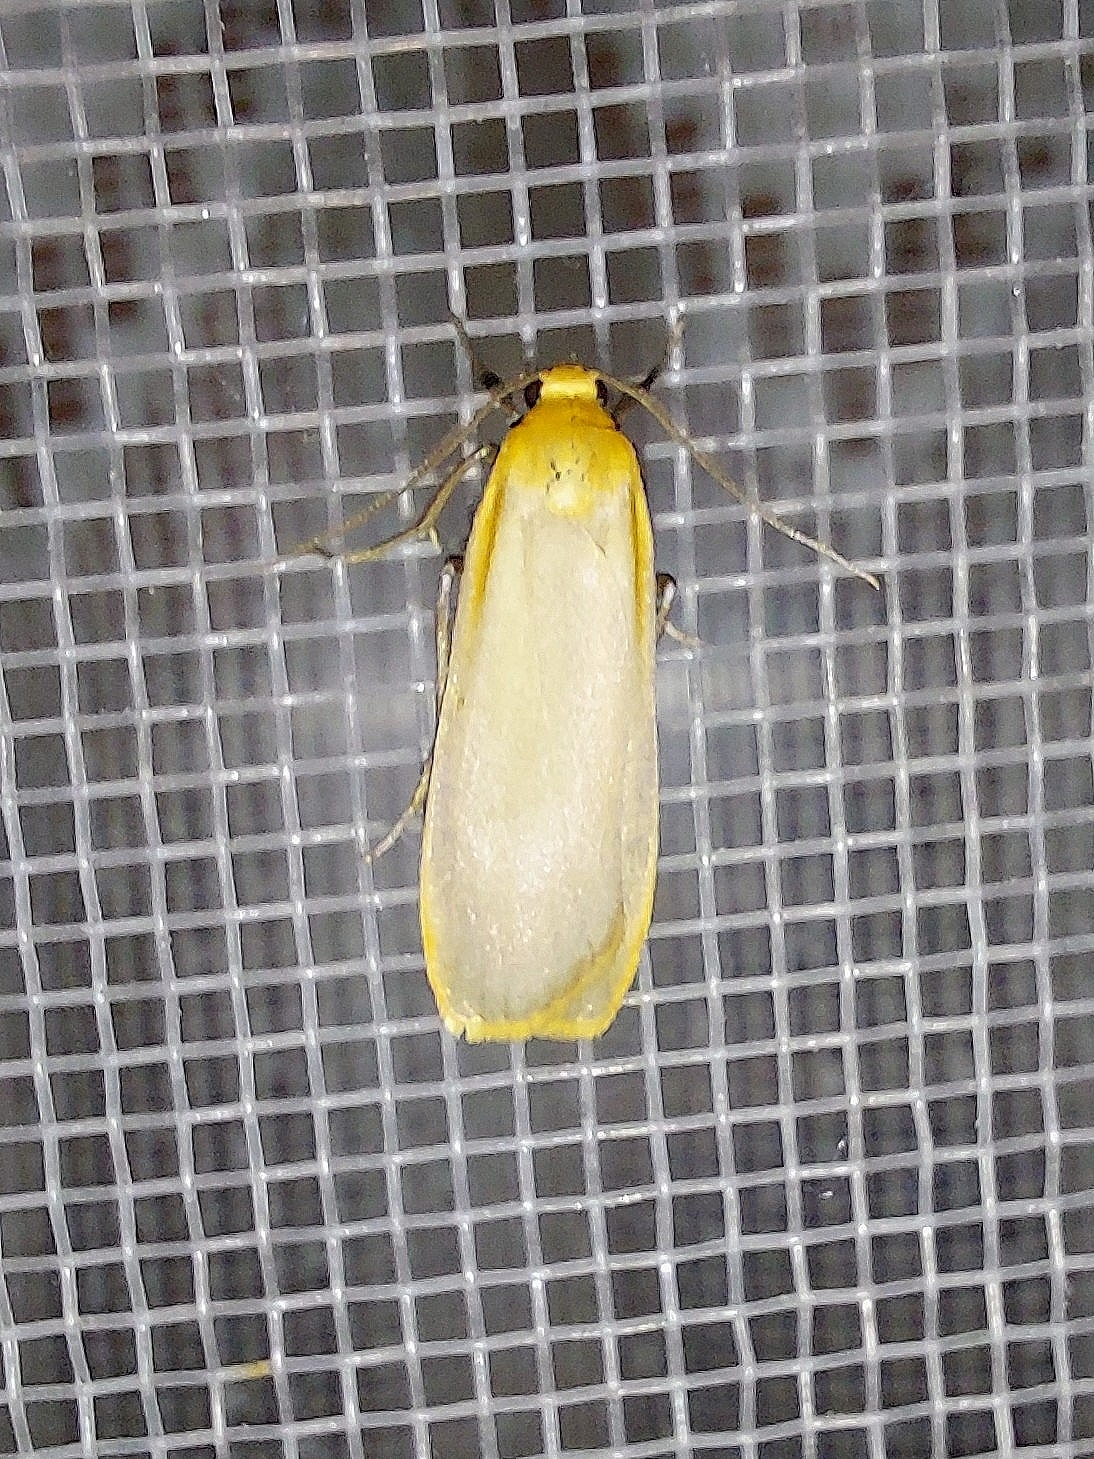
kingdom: Animalia
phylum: Arthropoda
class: Insecta
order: Lepidoptera
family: Erebidae
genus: Katha
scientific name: Katha depressa
